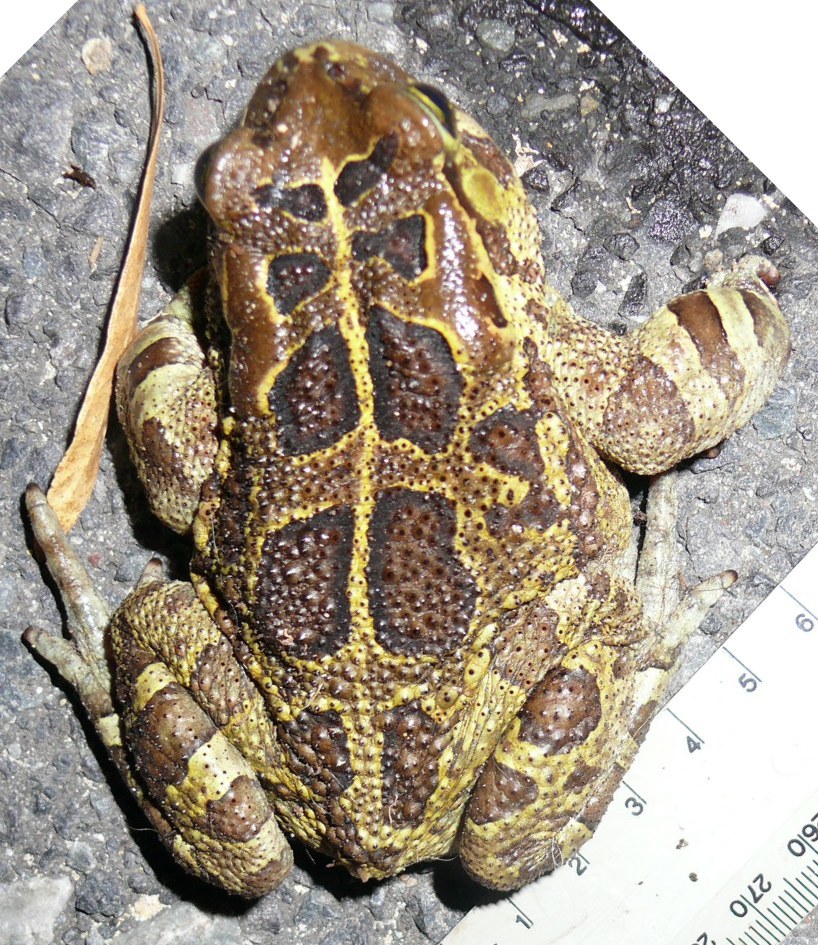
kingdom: Animalia
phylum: Chordata
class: Amphibia
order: Anura
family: Bufonidae
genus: Sclerophrys
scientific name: Sclerophrys pantherina
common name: Panther toad
